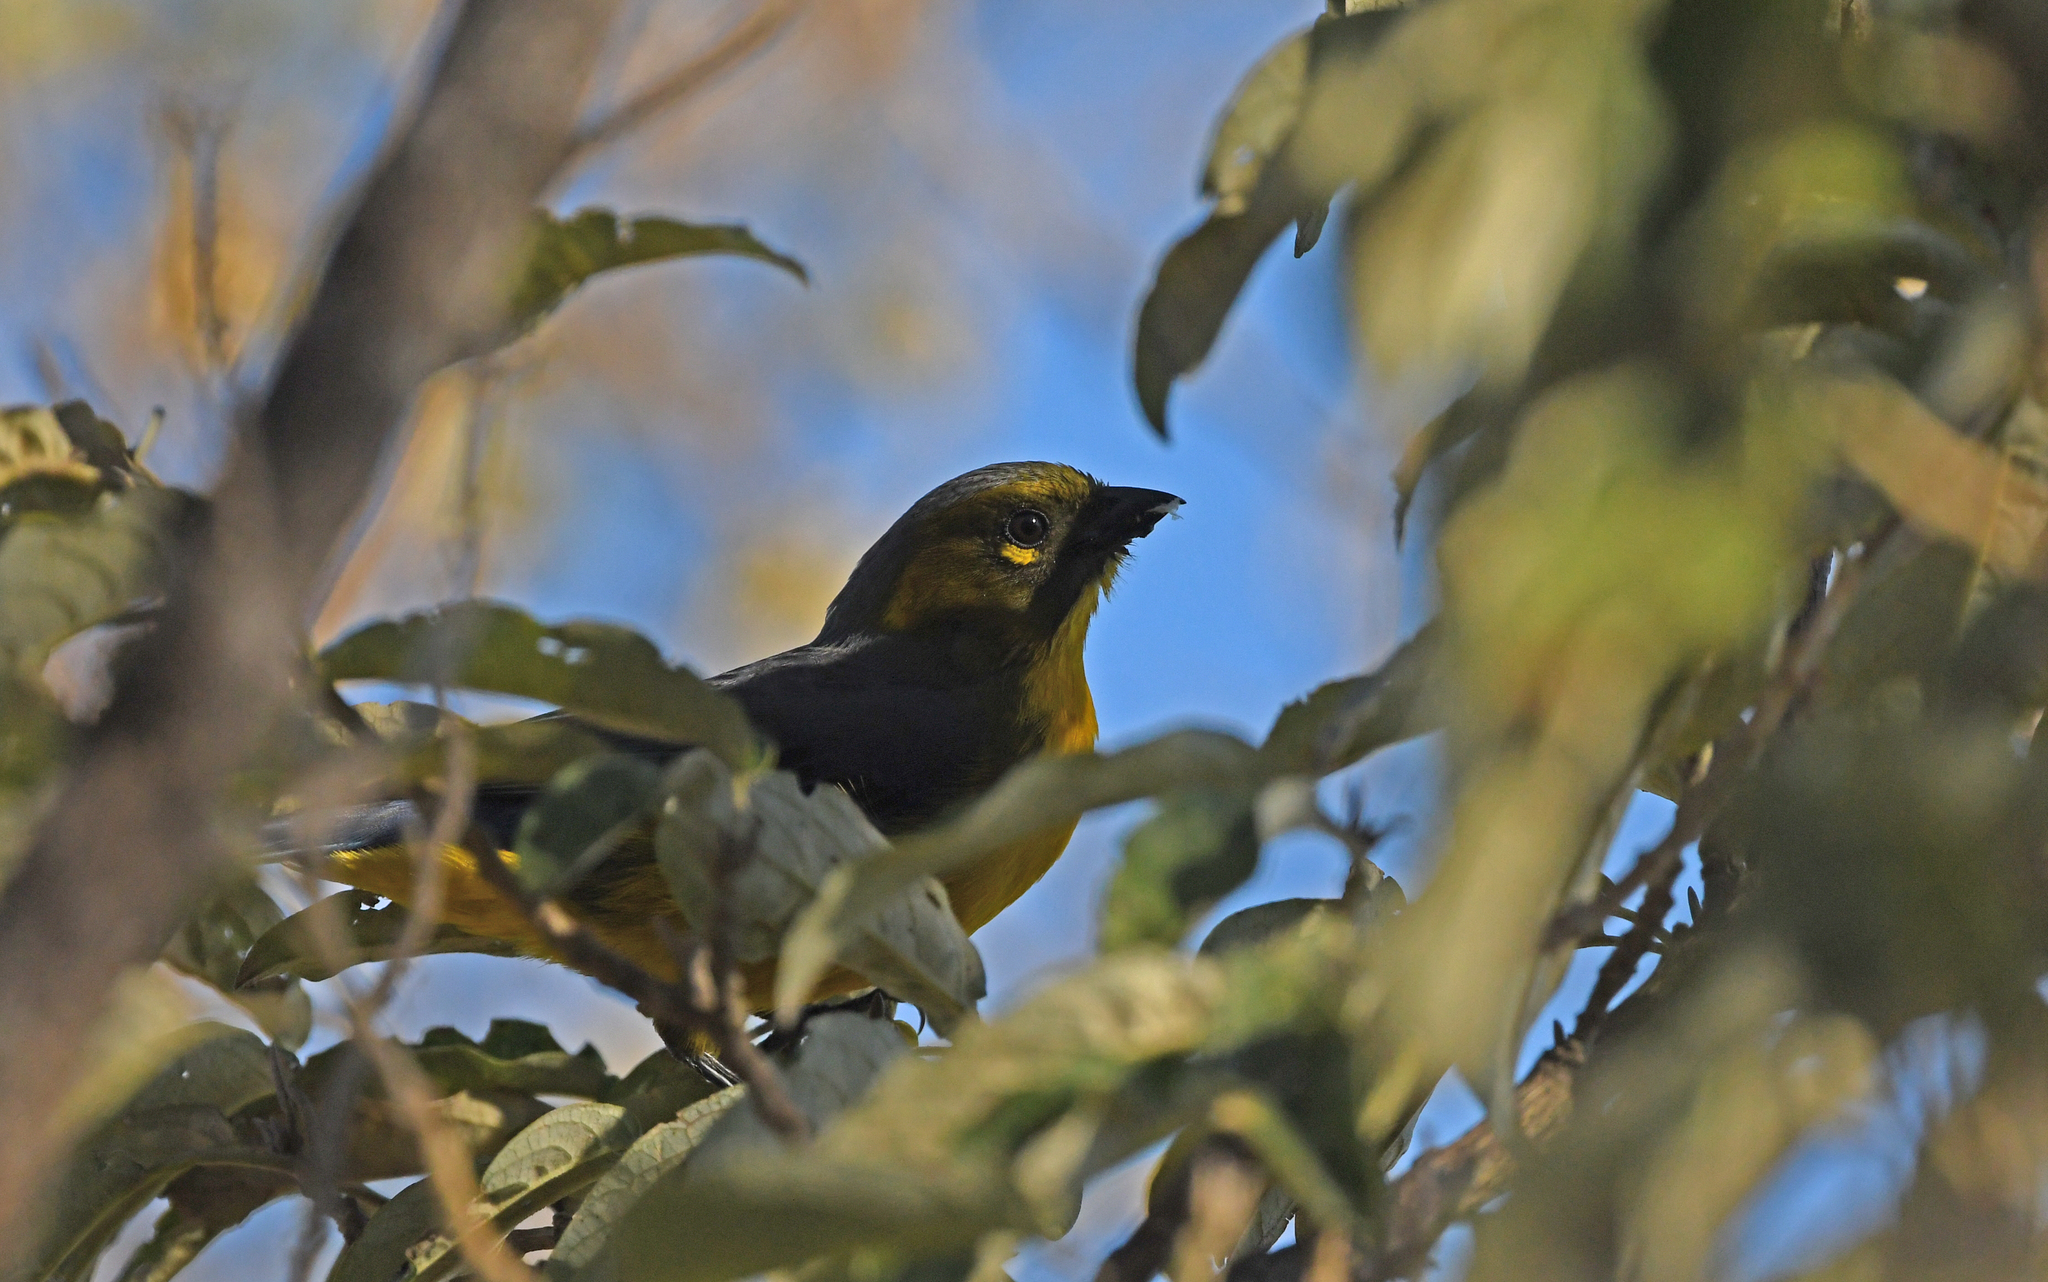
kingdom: Animalia
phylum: Chordata
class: Aves
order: Passeriformes
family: Thraupidae
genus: Anisognathus
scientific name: Anisognathus lacrymosus
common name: Lacrimose mountain-tanager
